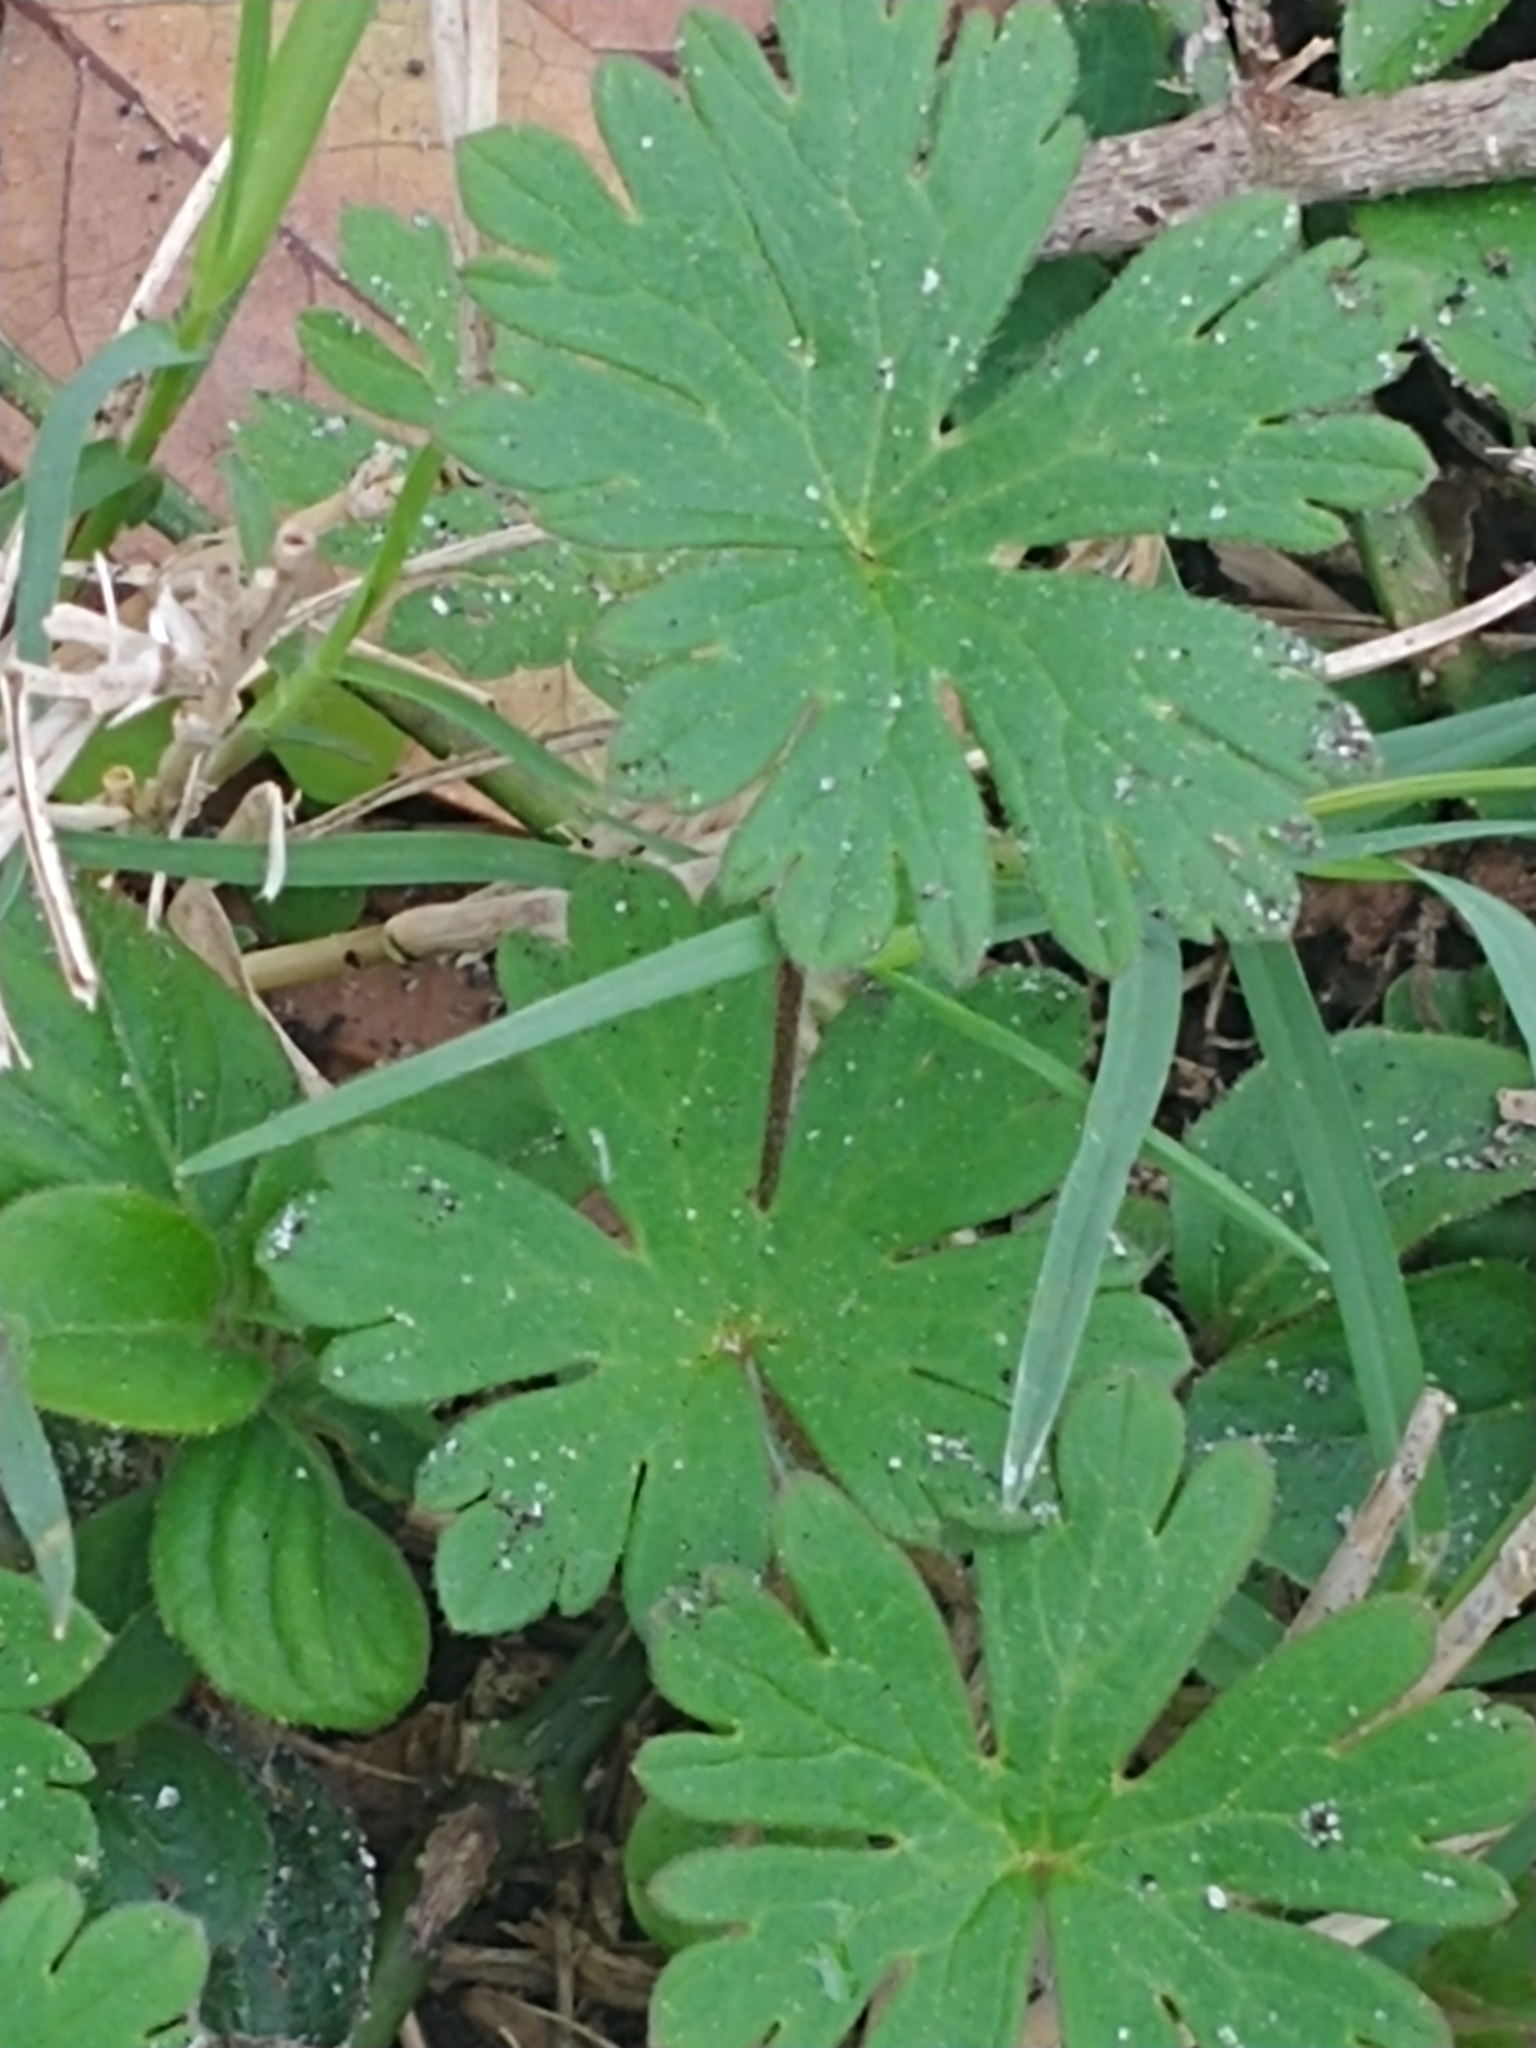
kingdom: Plantae
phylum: Tracheophyta
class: Magnoliopsida
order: Geraniales
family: Geraniaceae
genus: Geranium
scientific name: Geranium carolinianum
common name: Carolina crane's-bill
